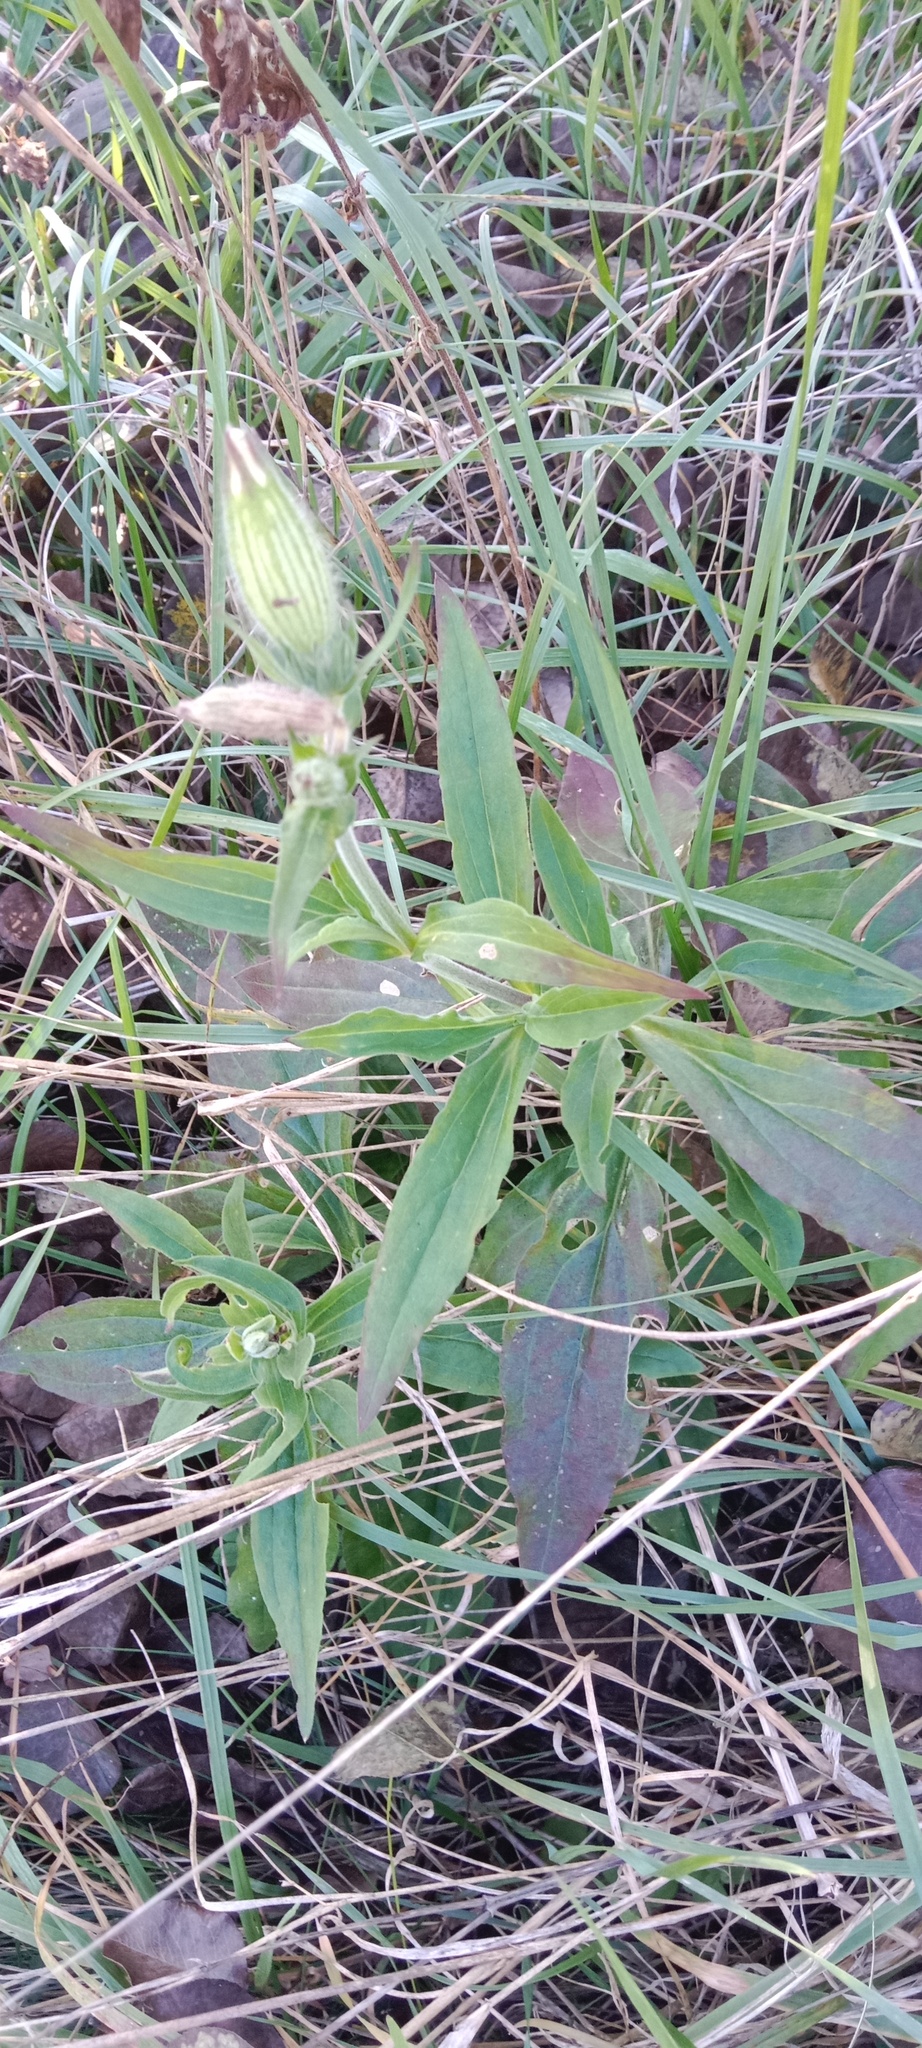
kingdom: Plantae
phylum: Tracheophyta
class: Magnoliopsida
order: Caryophyllales
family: Caryophyllaceae
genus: Silene
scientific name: Silene latifolia
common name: White campion
